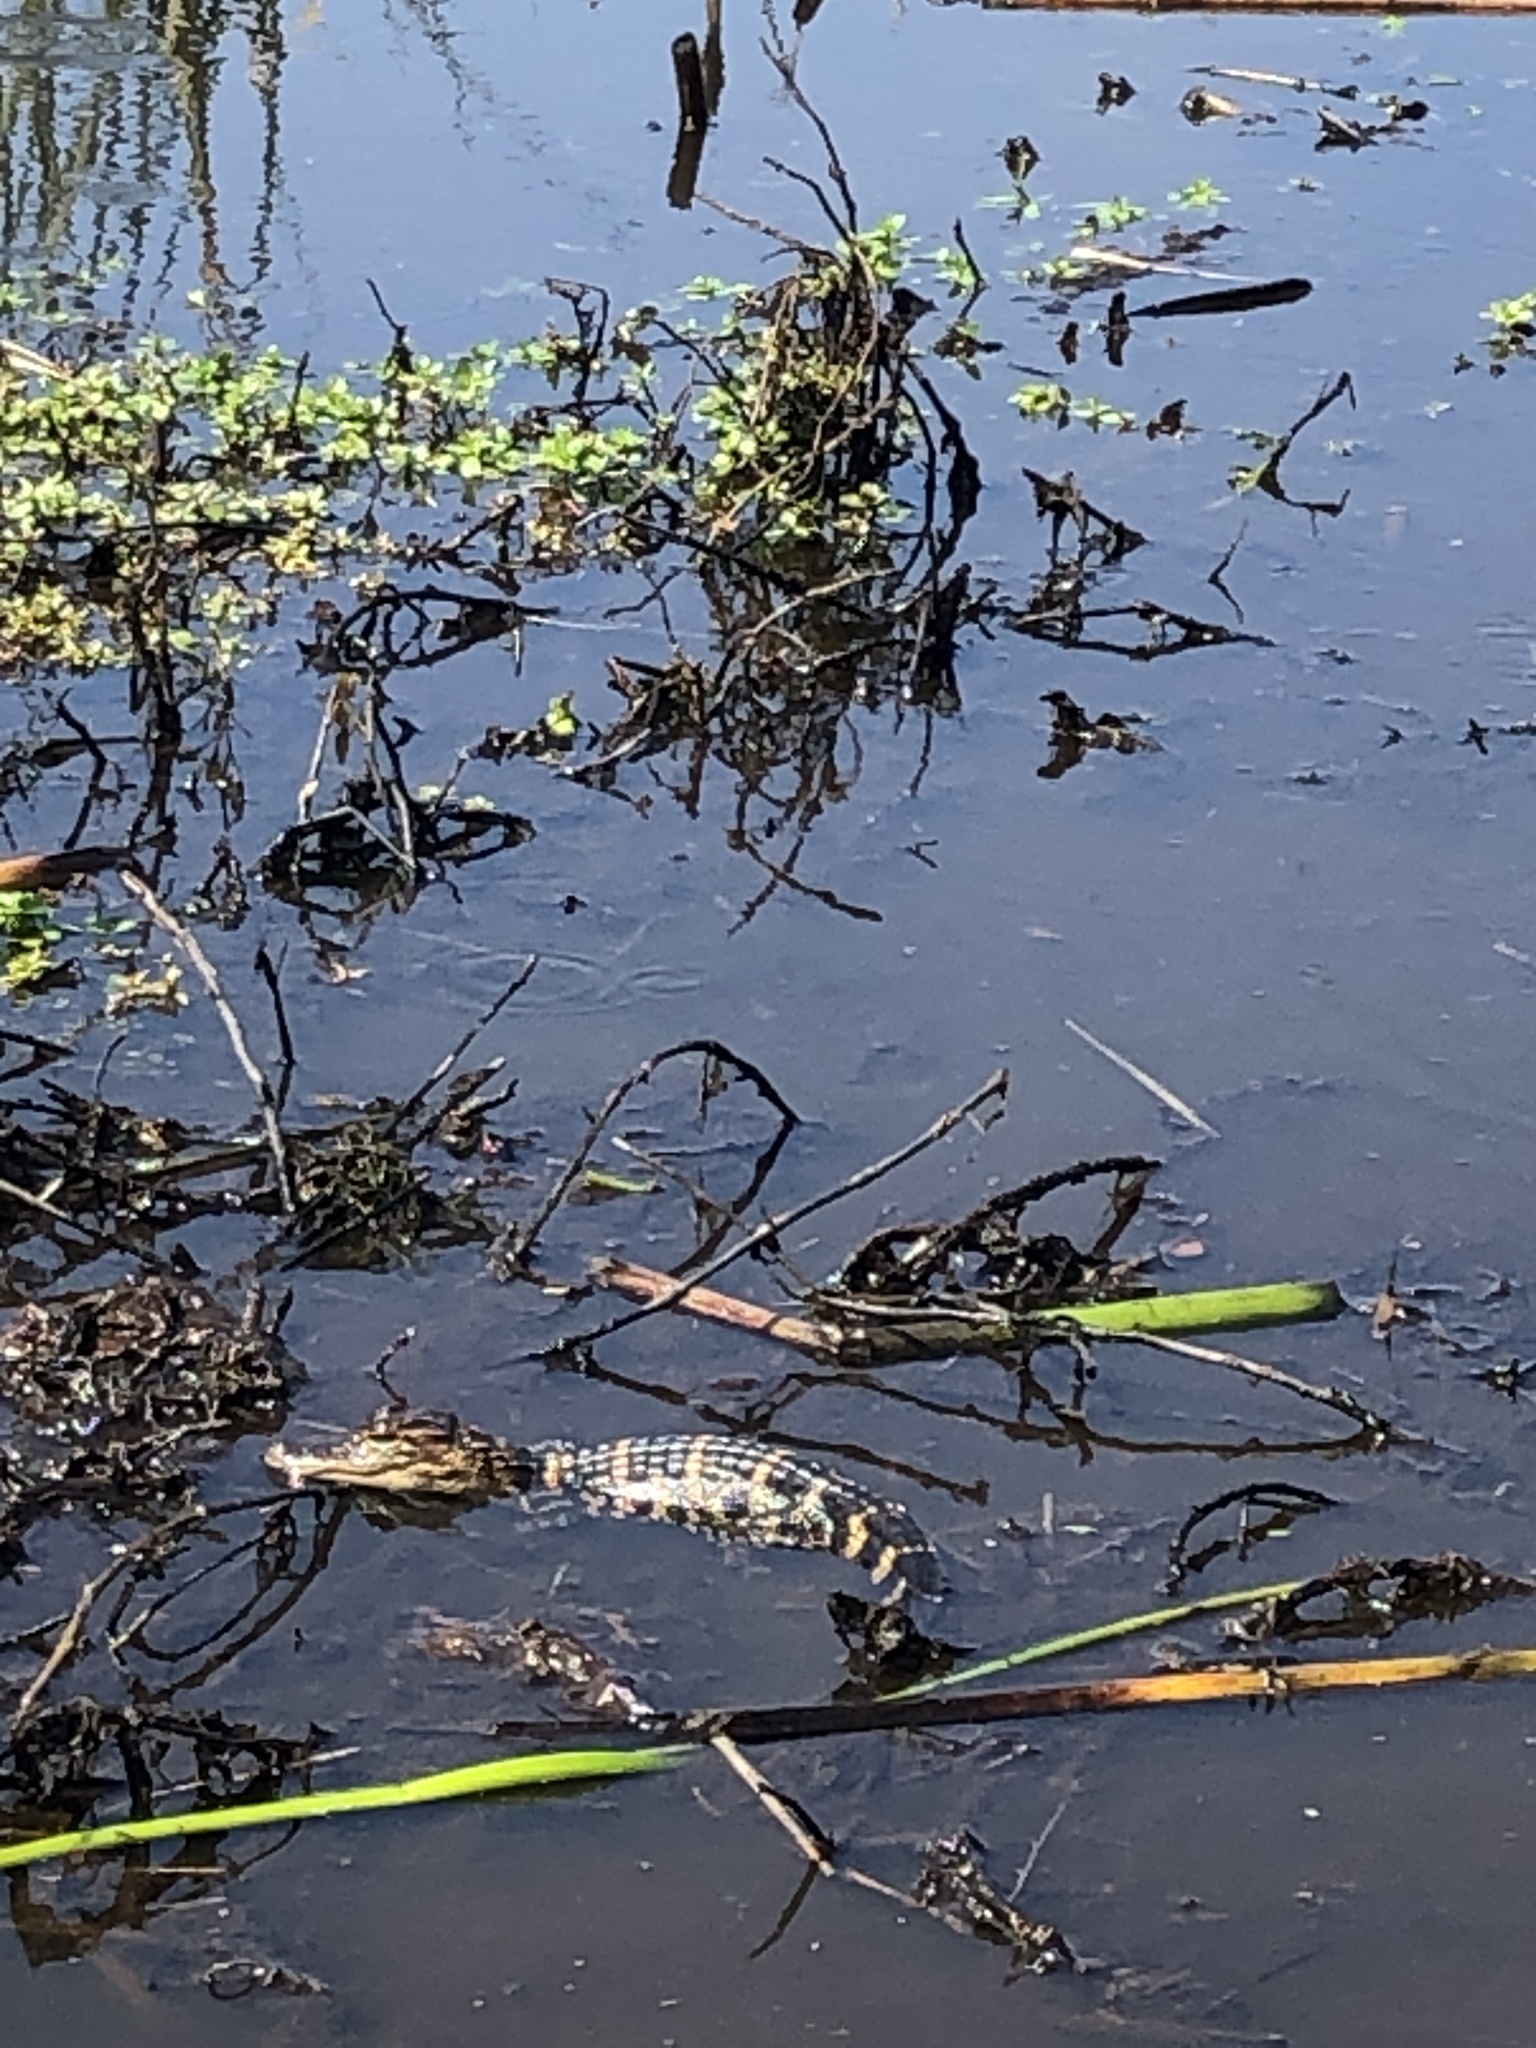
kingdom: Animalia
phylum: Chordata
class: Crocodylia
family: Alligatoridae
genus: Alligator
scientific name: Alligator mississippiensis
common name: American alligator
